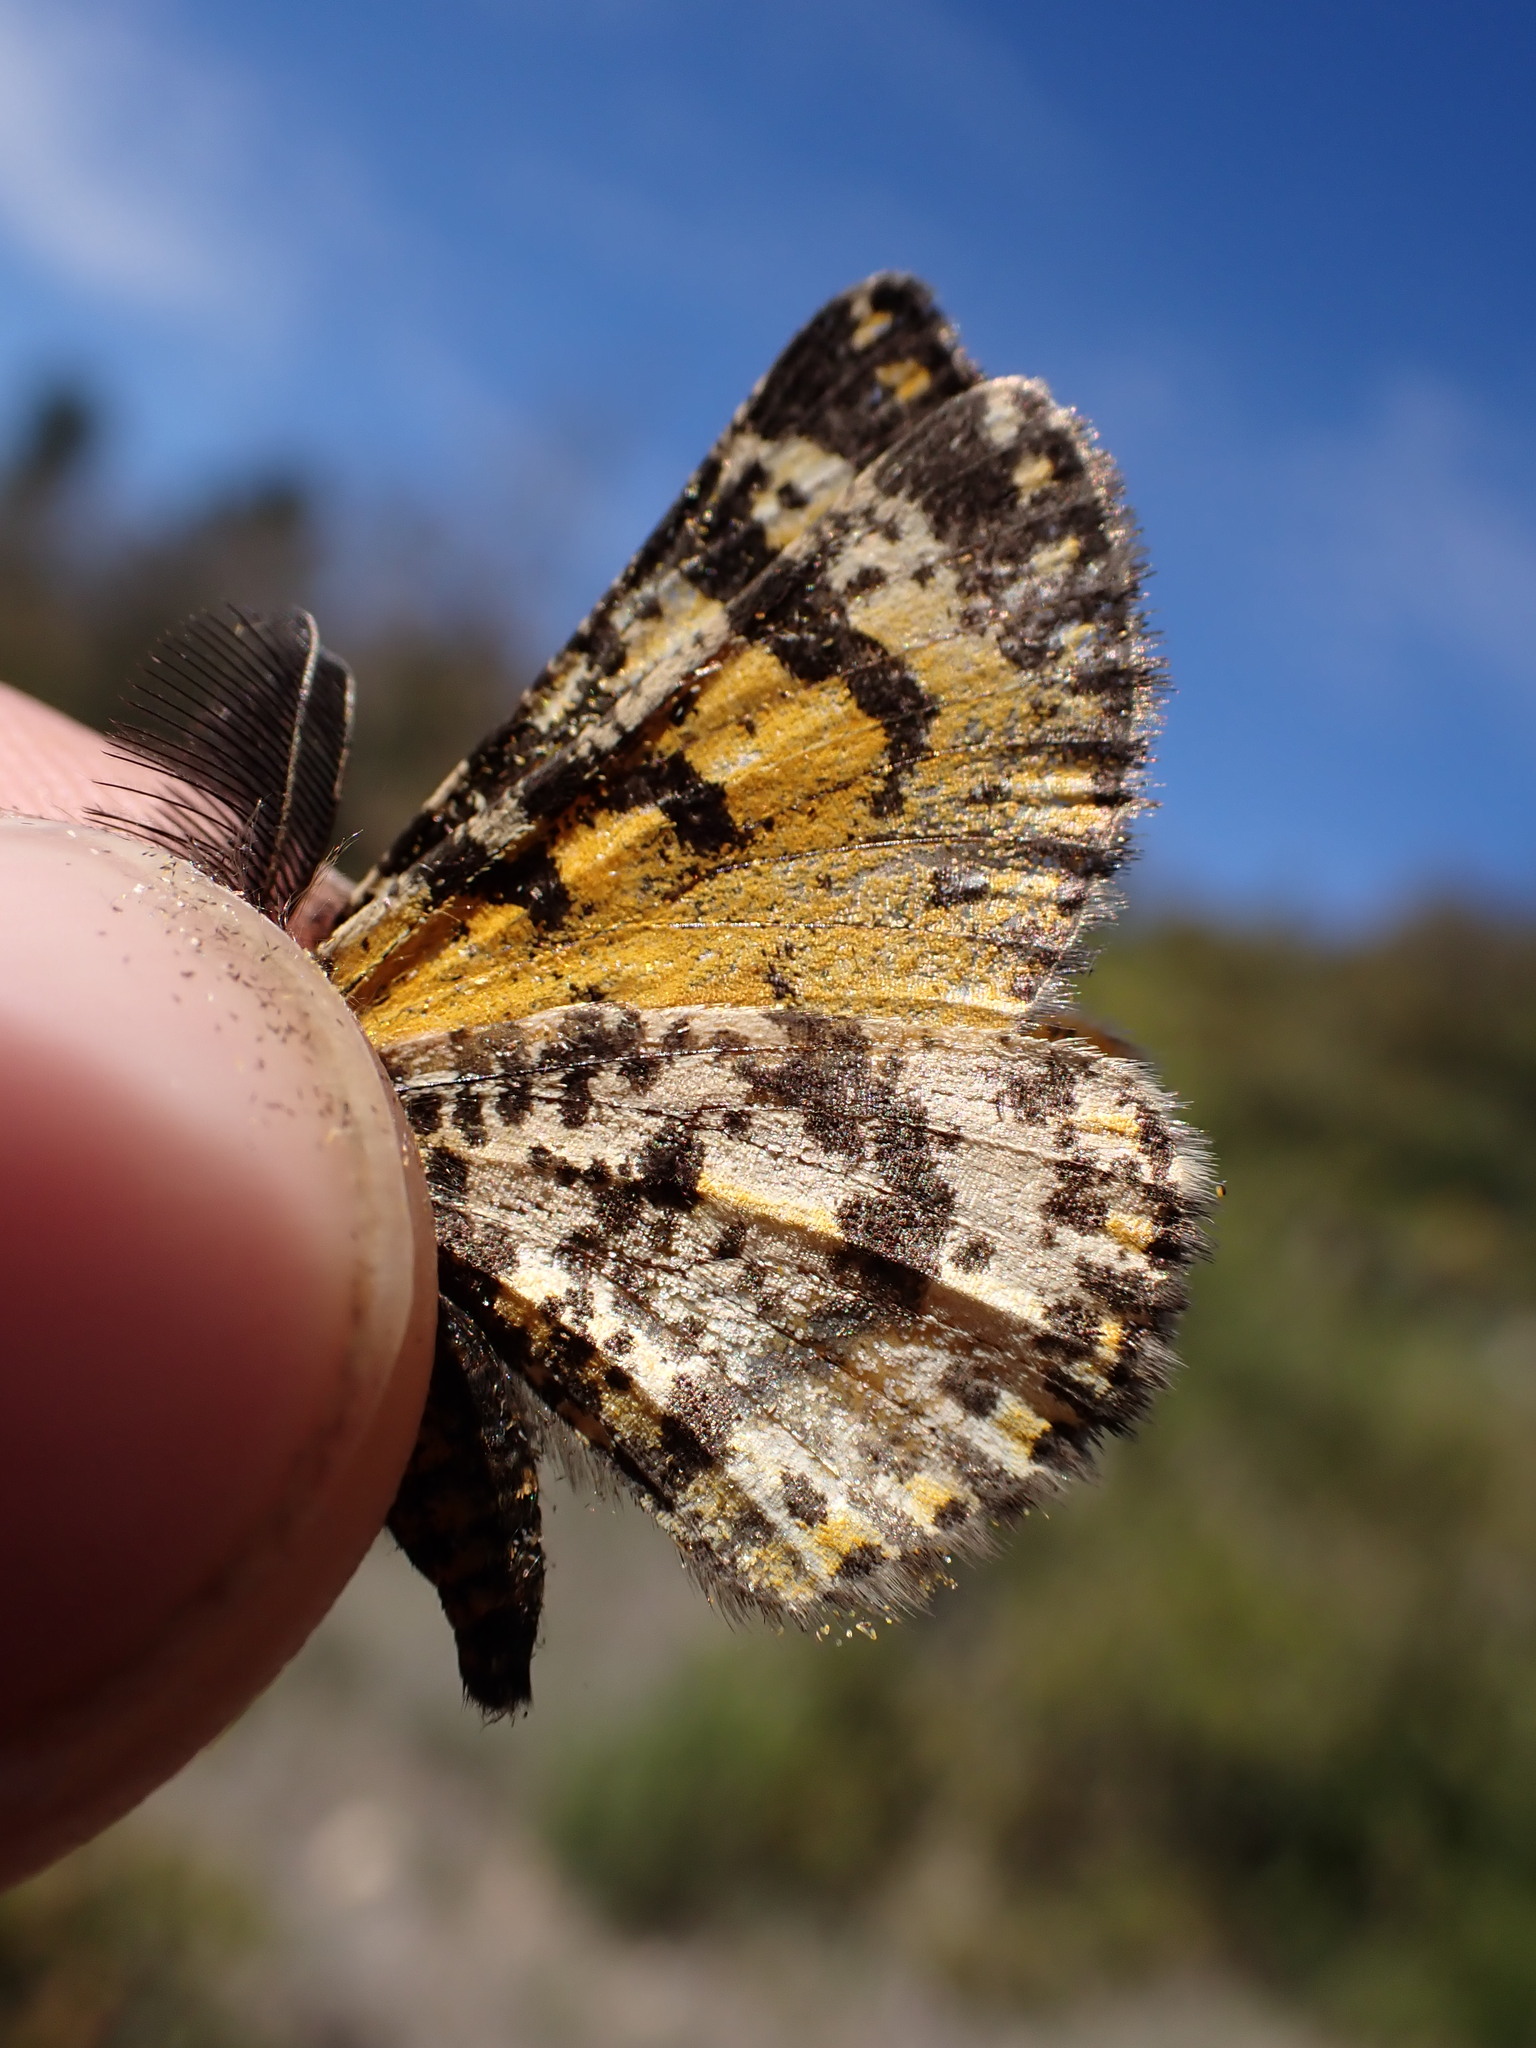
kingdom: Animalia
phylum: Arthropoda
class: Insecta
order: Lepidoptera
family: Geometridae
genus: Eurranthis
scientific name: Eurranthis plummistaria
